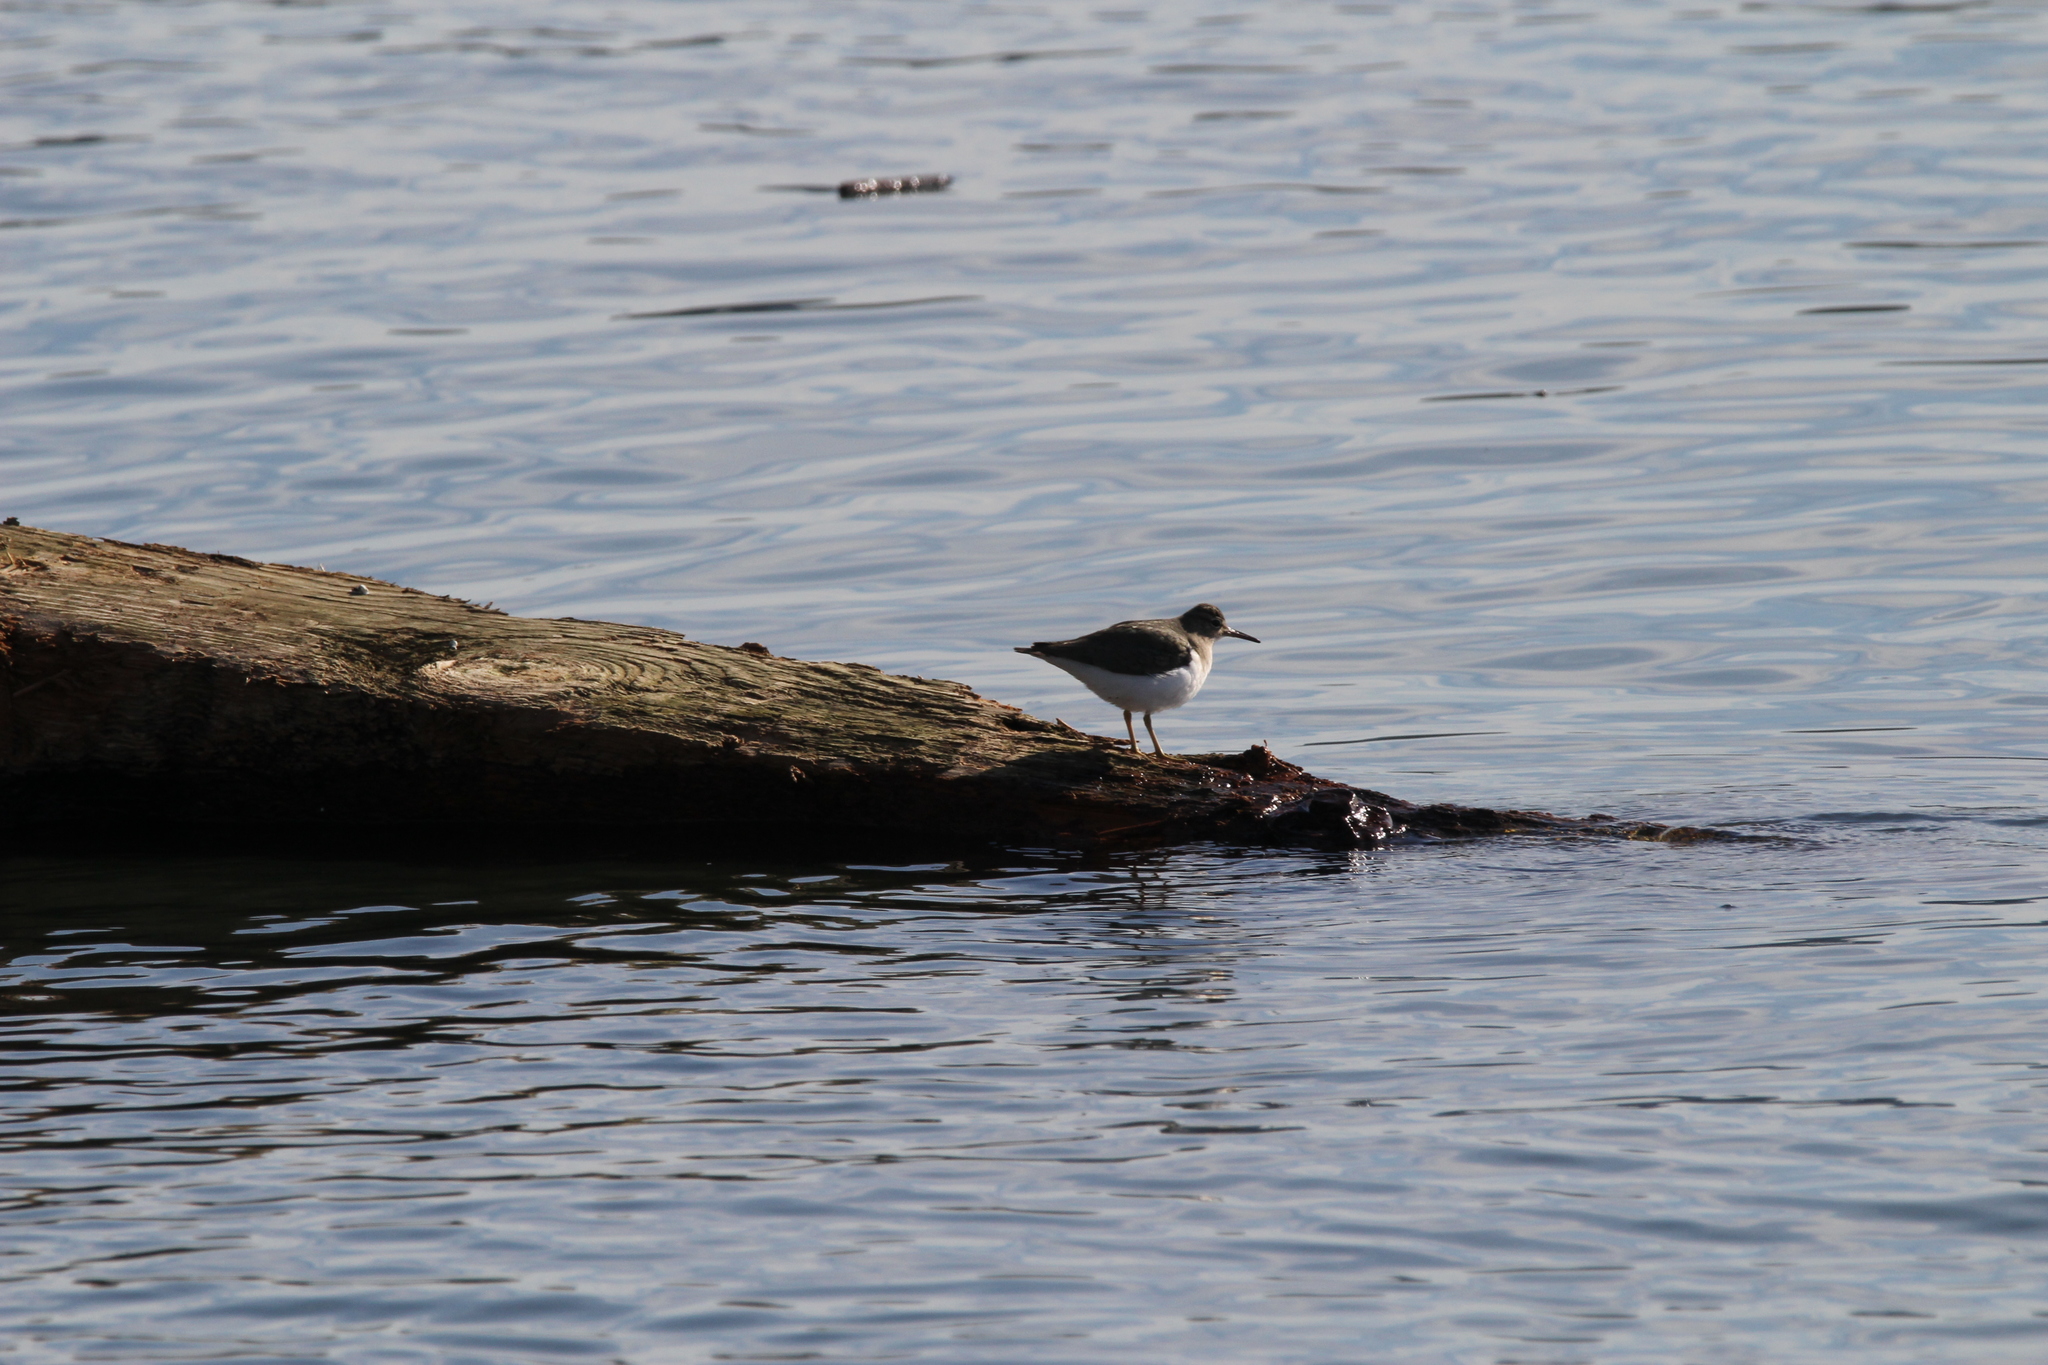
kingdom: Animalia
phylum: Chordata
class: Aves
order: Charadriiformes
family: Scolopacidae
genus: Actitis
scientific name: Actitis macularius
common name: Spotted sandpiper
